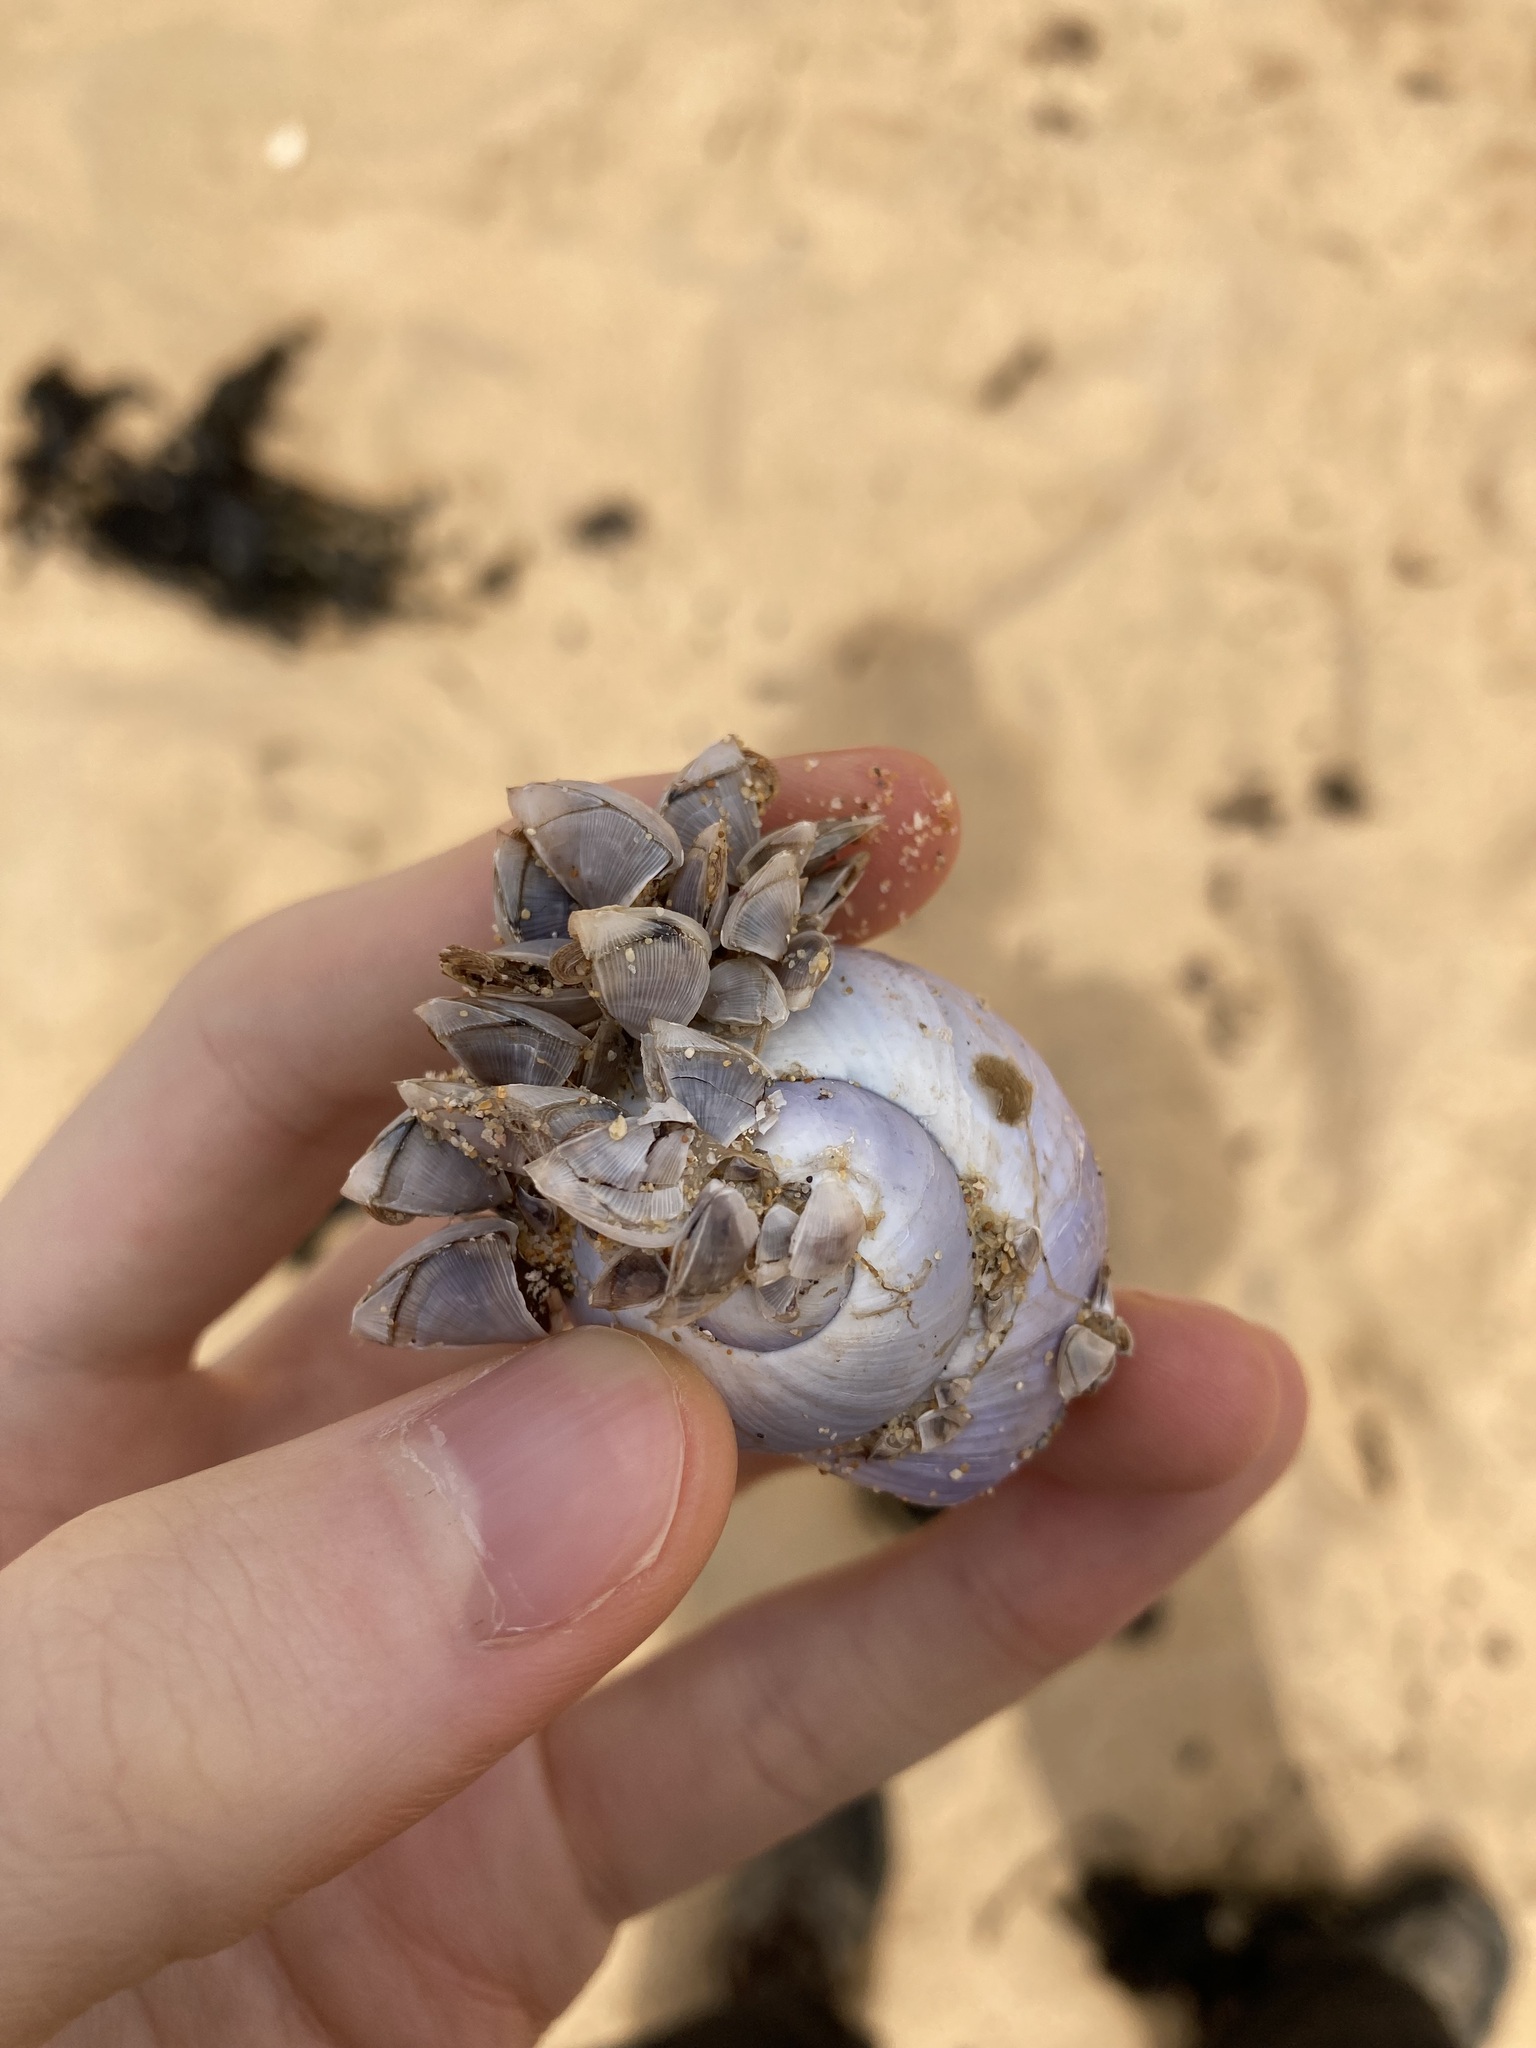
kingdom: Animalia
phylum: Arthropoda
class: Maxillopoda
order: Pedunculata
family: Lepadidae
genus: Lepas
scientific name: Lepas pectinata
